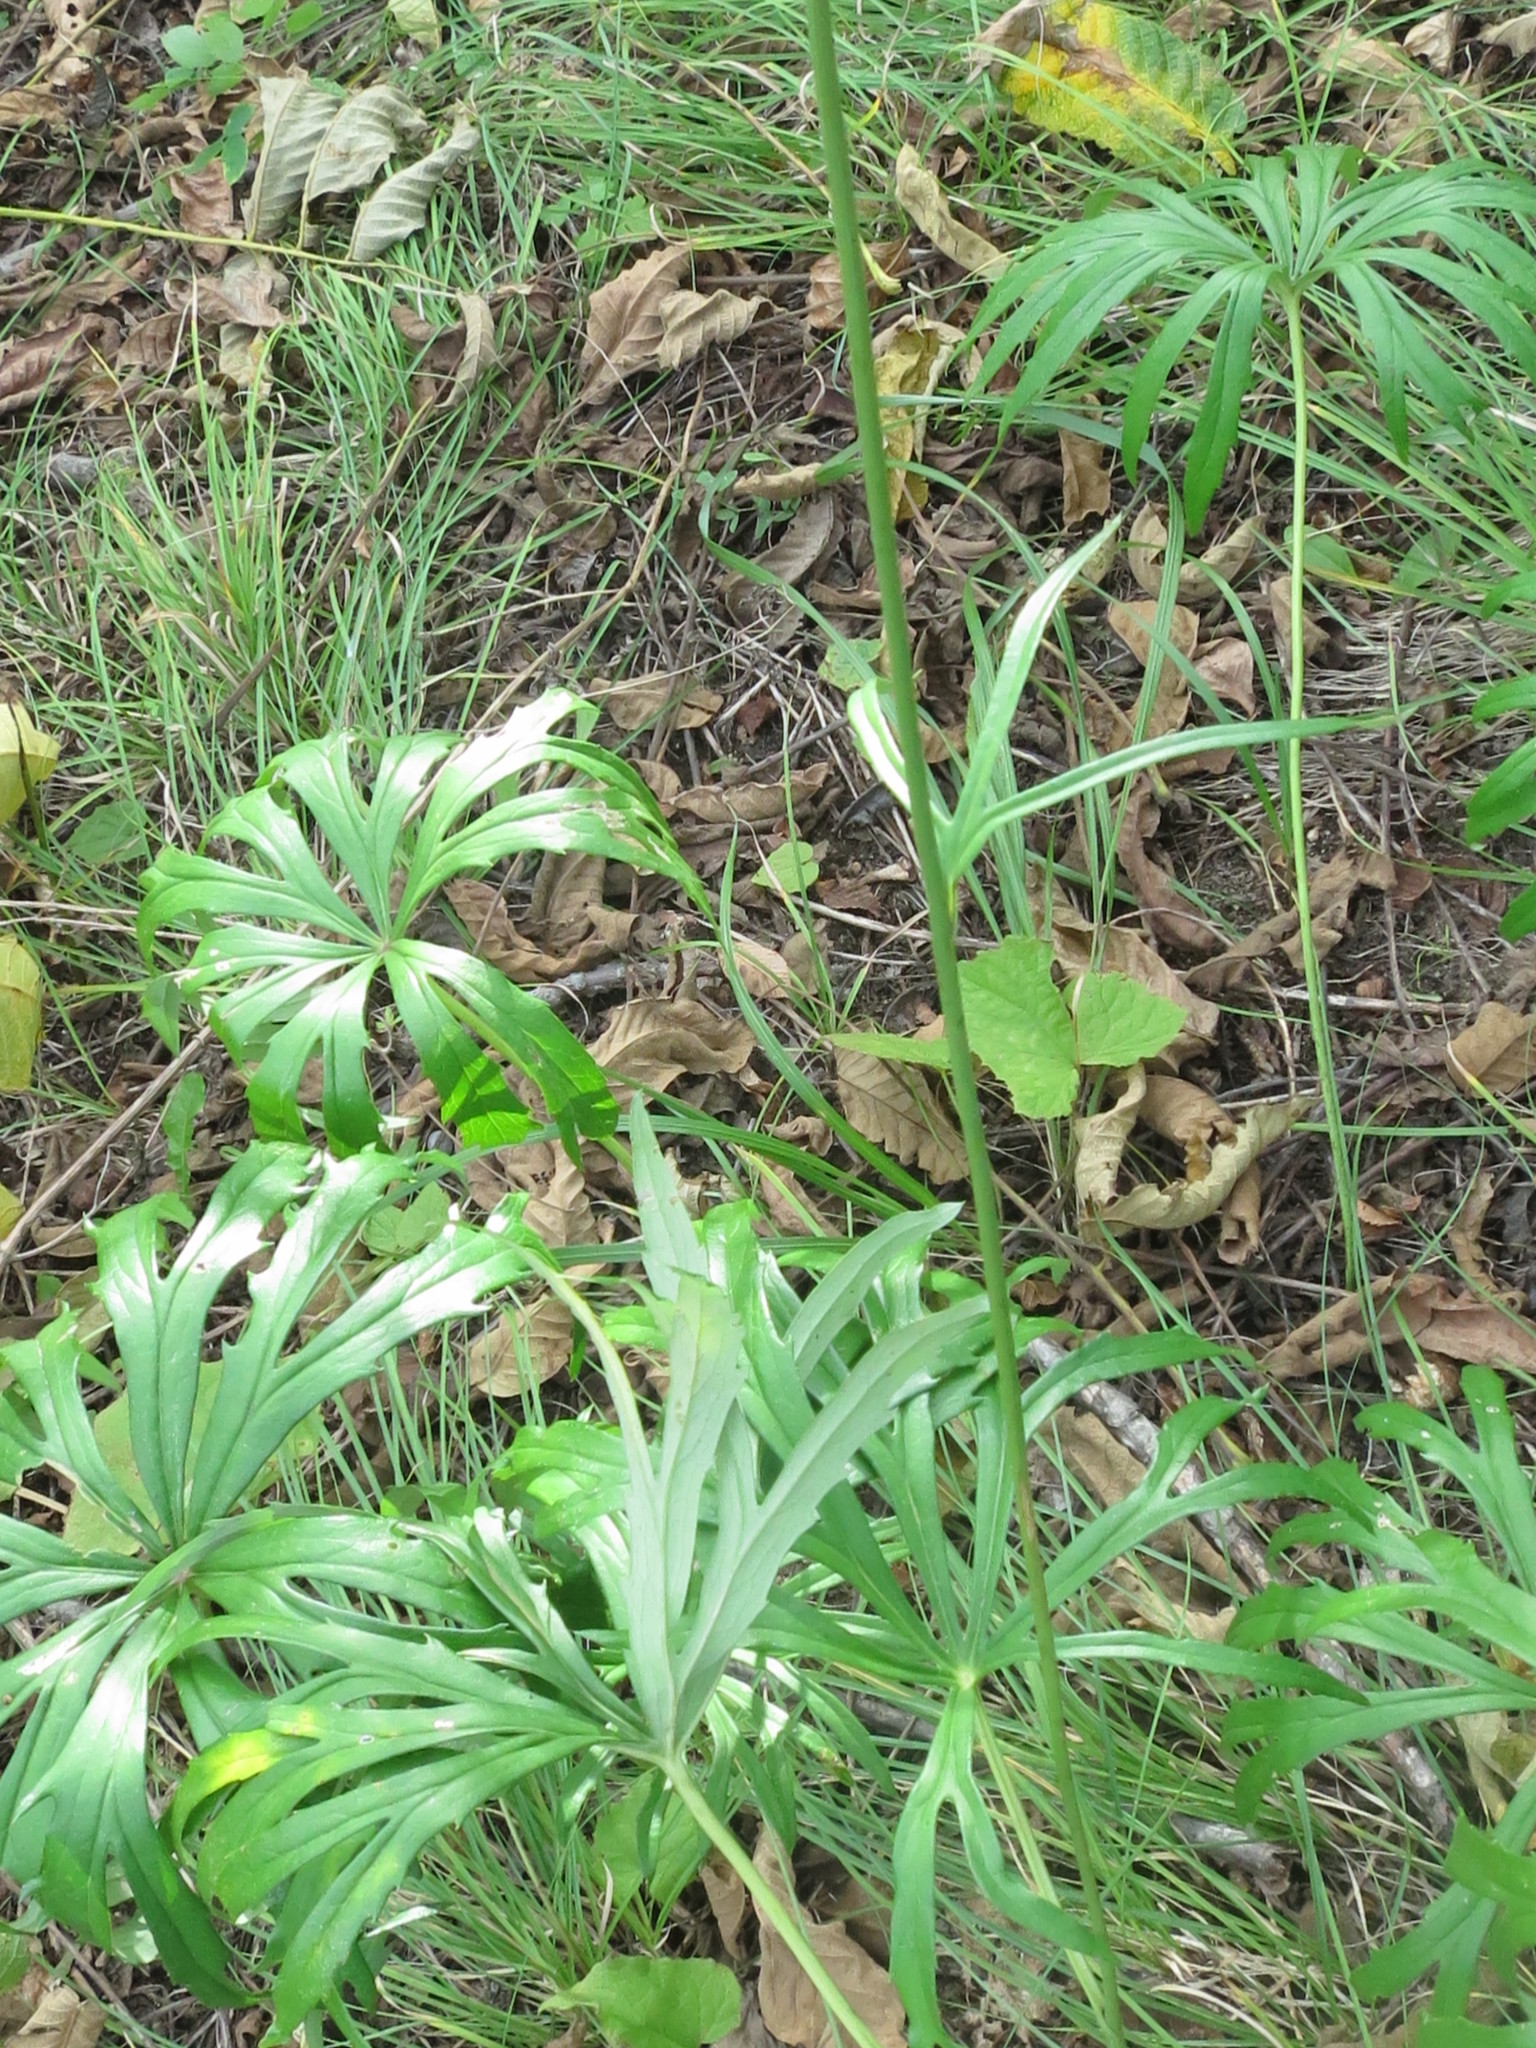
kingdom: Plantae
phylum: Tracheophyta
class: Magnoliopsida
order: Asterales
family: Asteraceae
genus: Syneilesis
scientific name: Syneilesis aconitifolia
